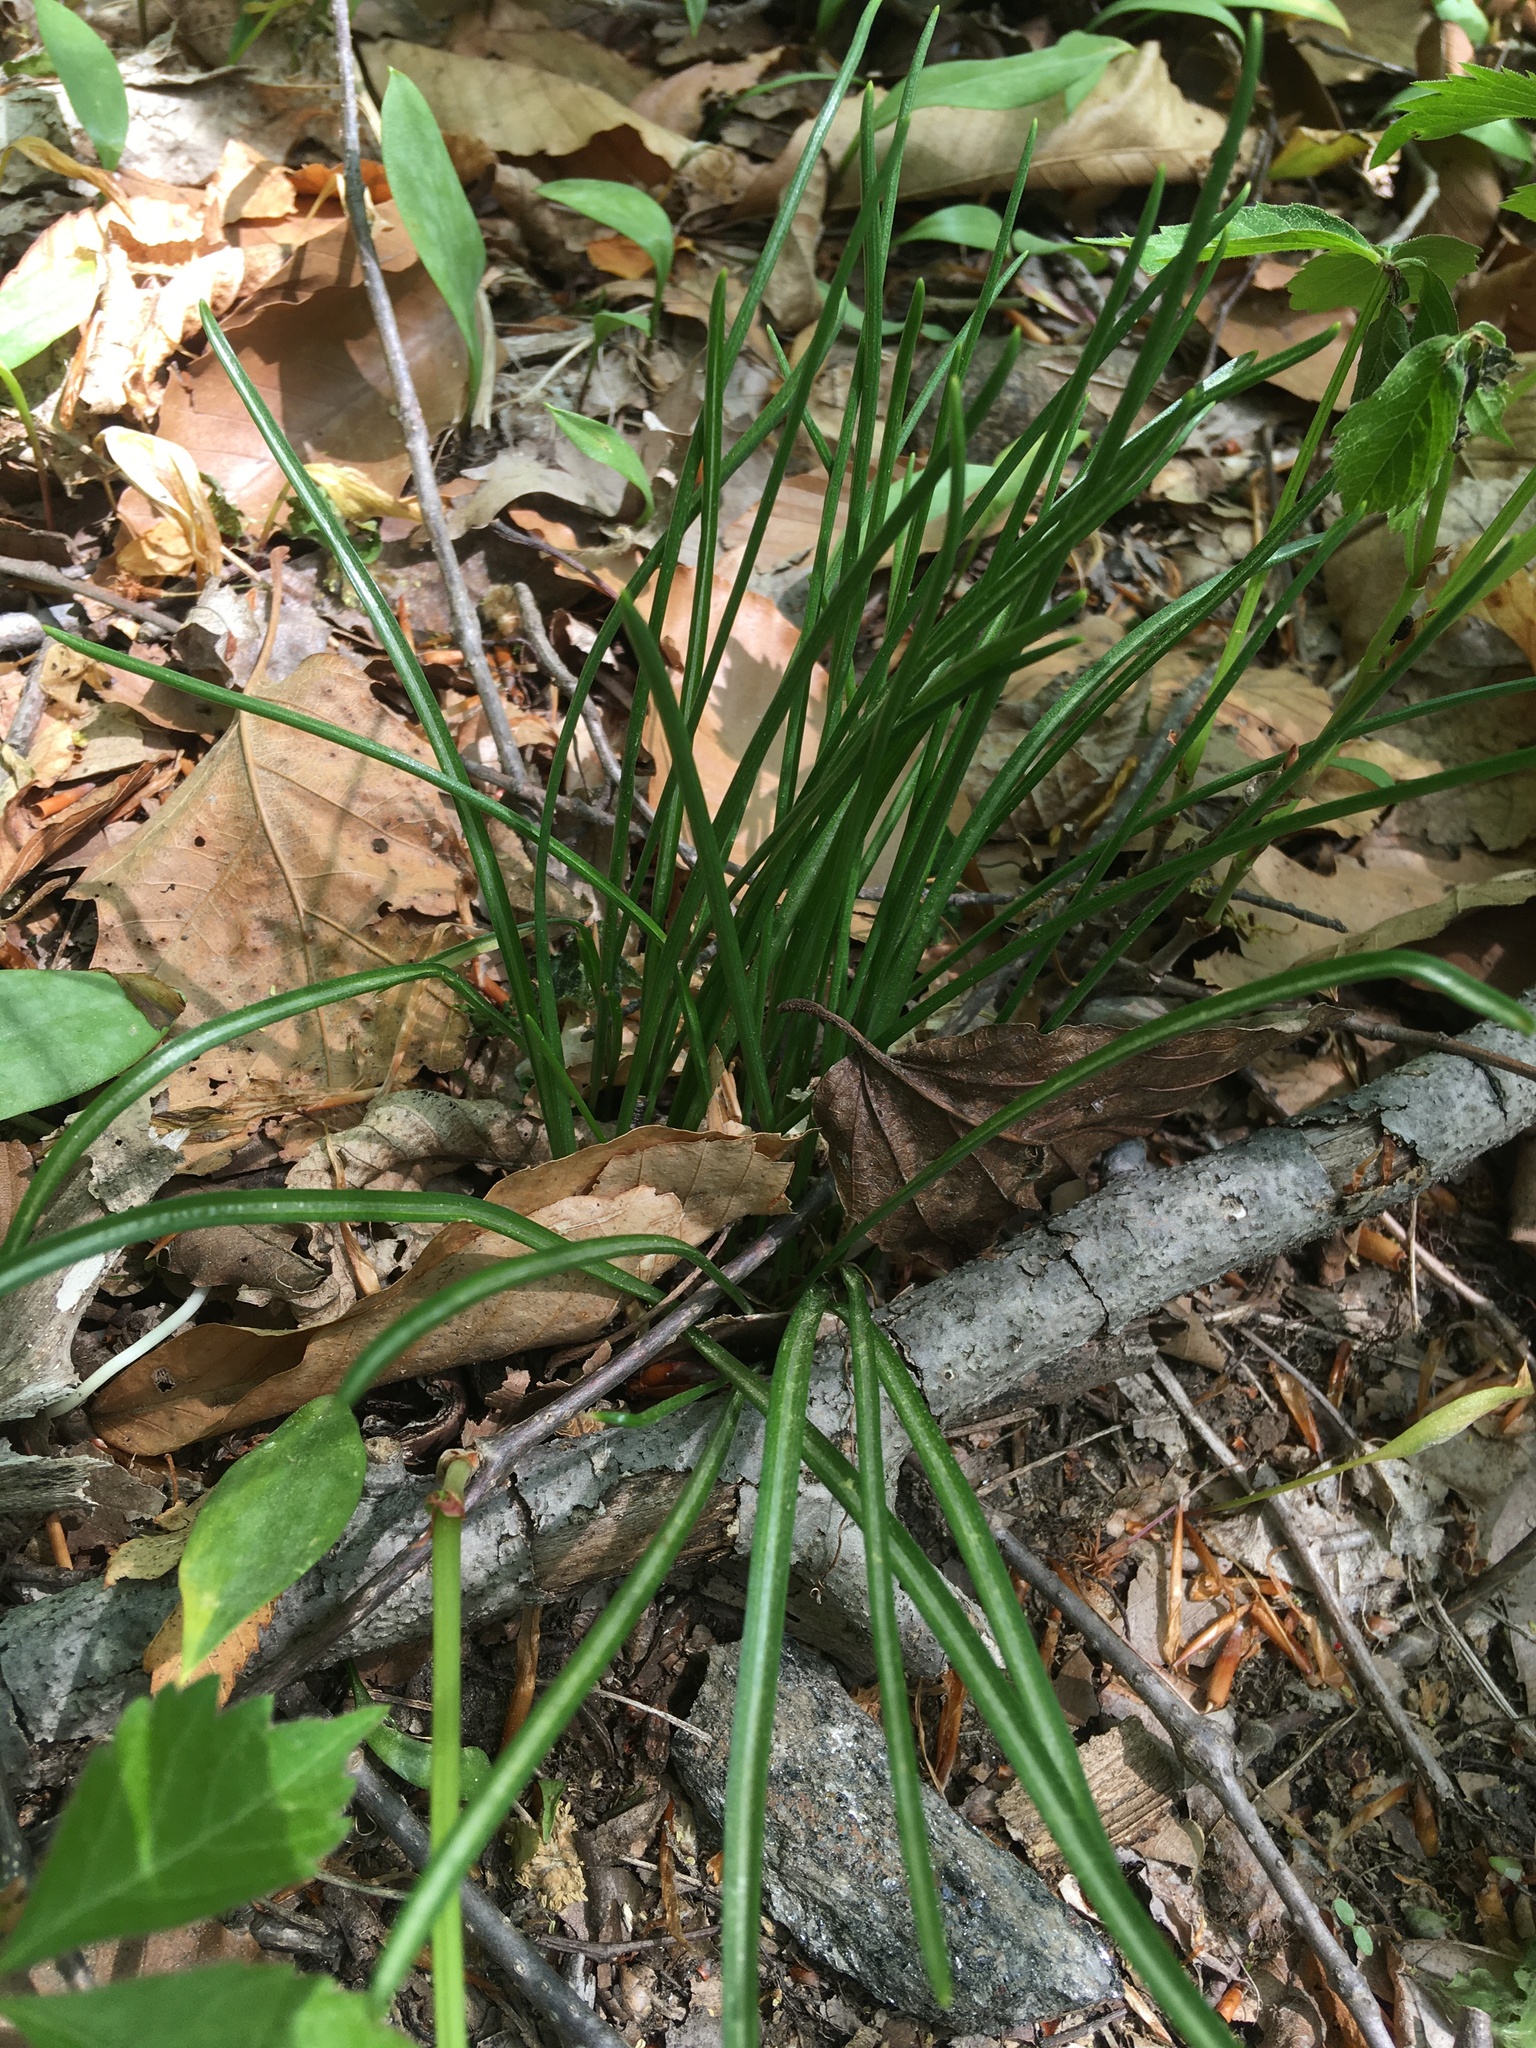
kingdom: Plantae
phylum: Tracheophyta
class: Liliopsida
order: Asparagales
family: Asparagaceae
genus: Muscari
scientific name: Muscari botryoides
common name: Compact grape-hyacinth
